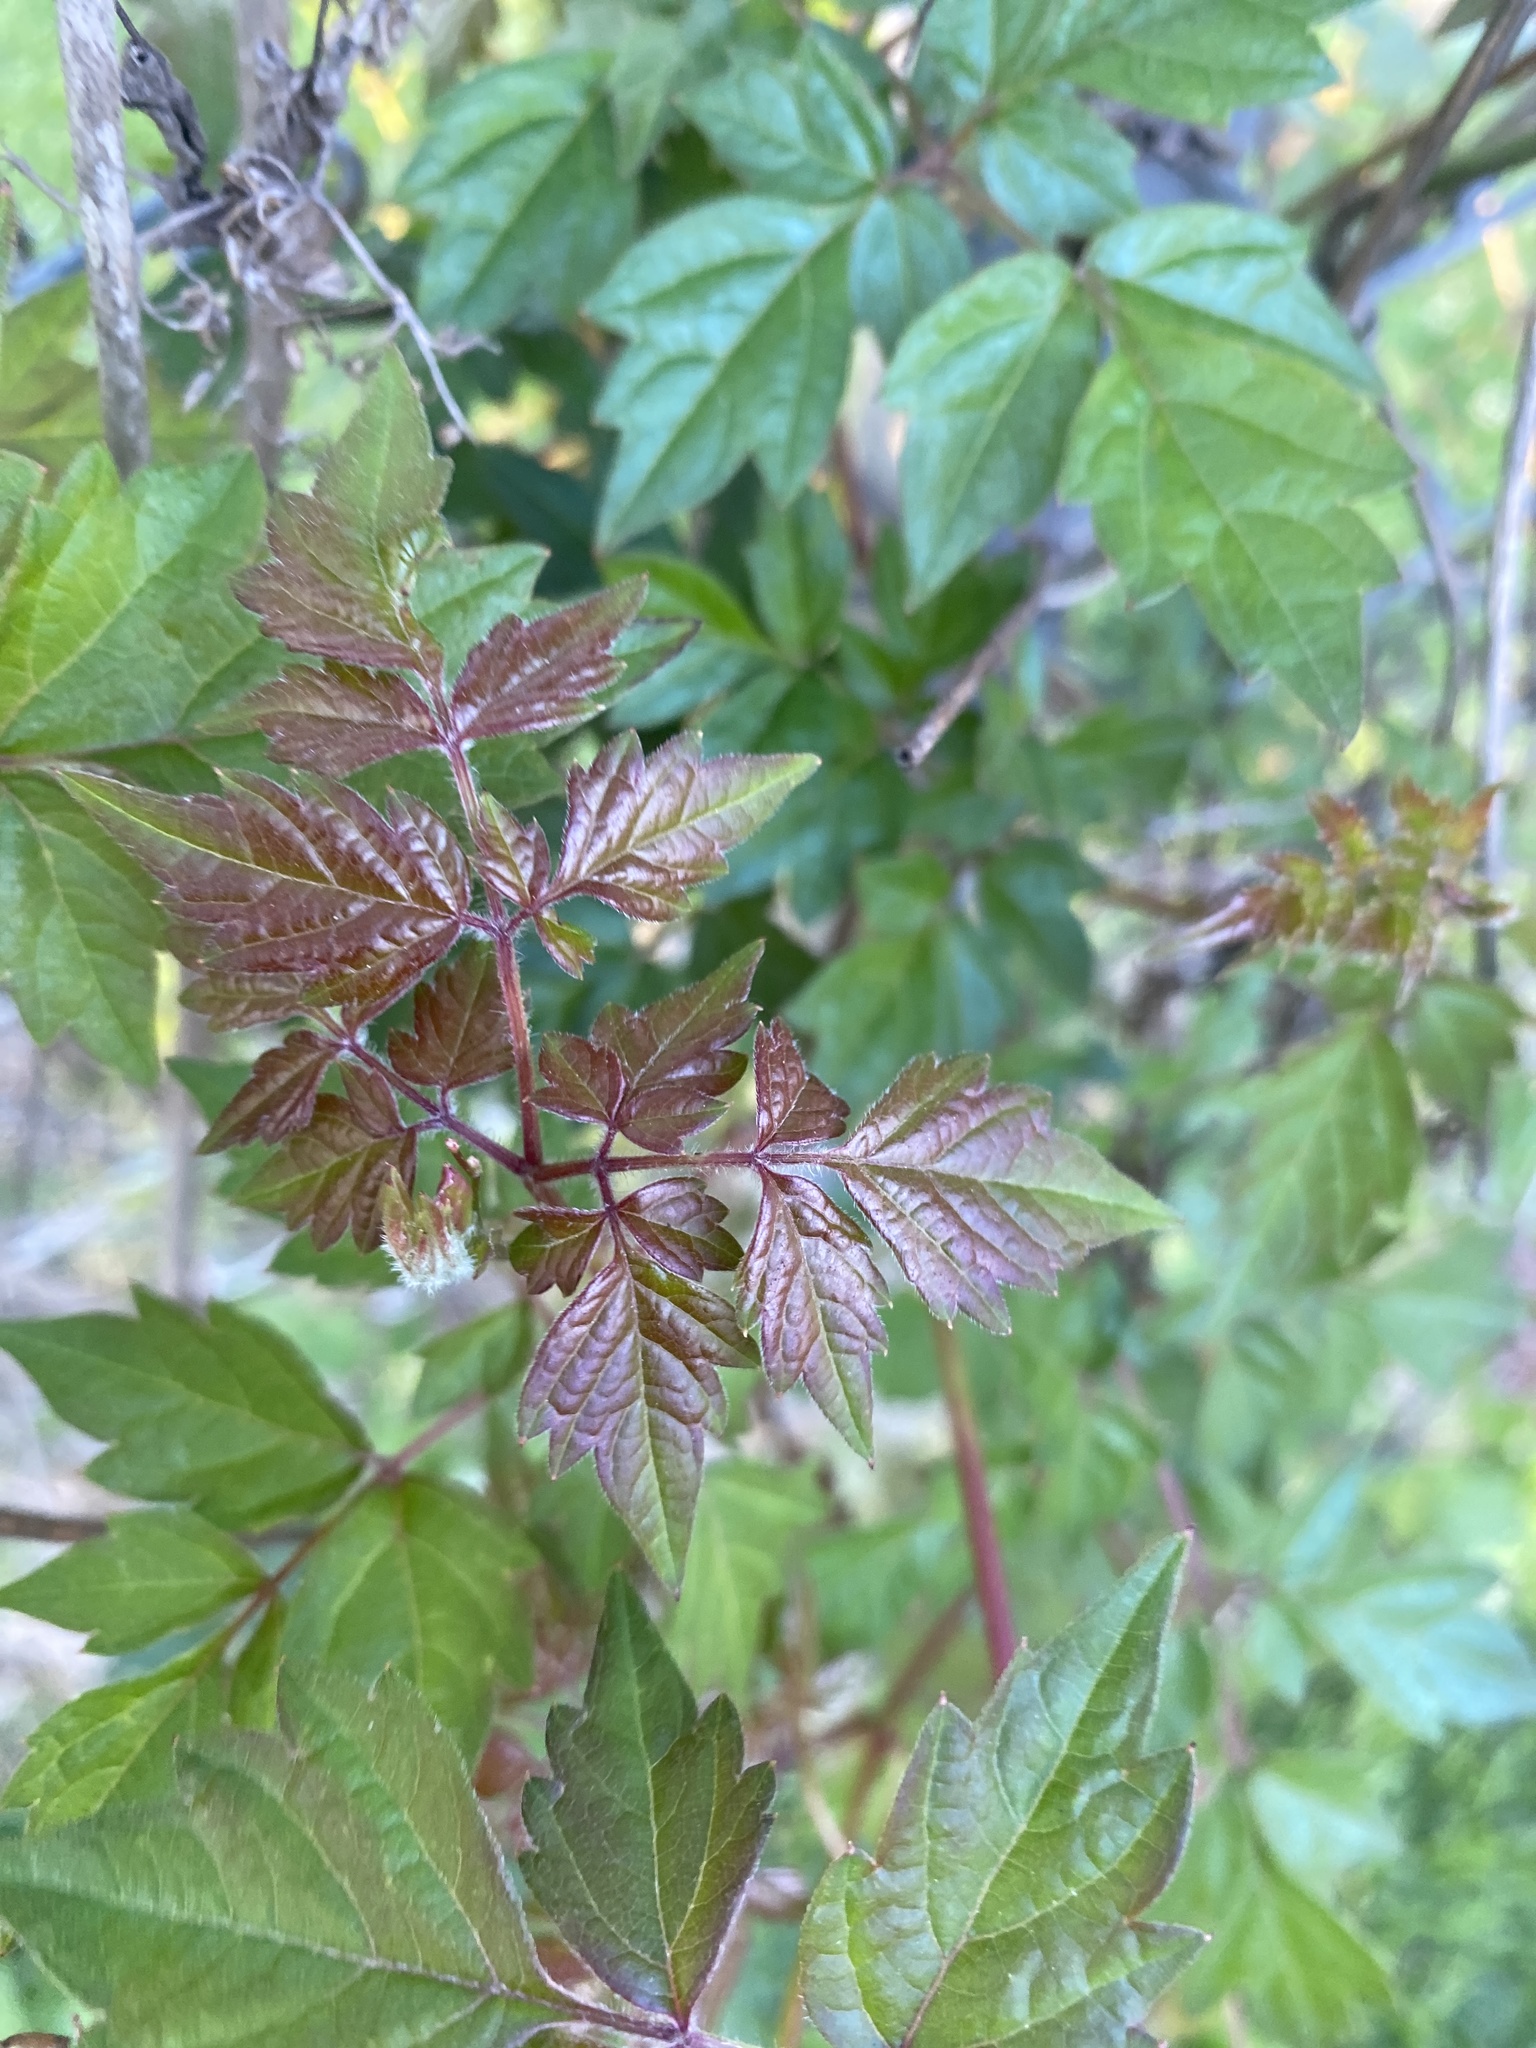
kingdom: Plantae
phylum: Tracheophyta
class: Magnoliopsida
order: Vitales
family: Vitaceae
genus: Nekemias
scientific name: Nekemias arborea
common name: Peppervine
